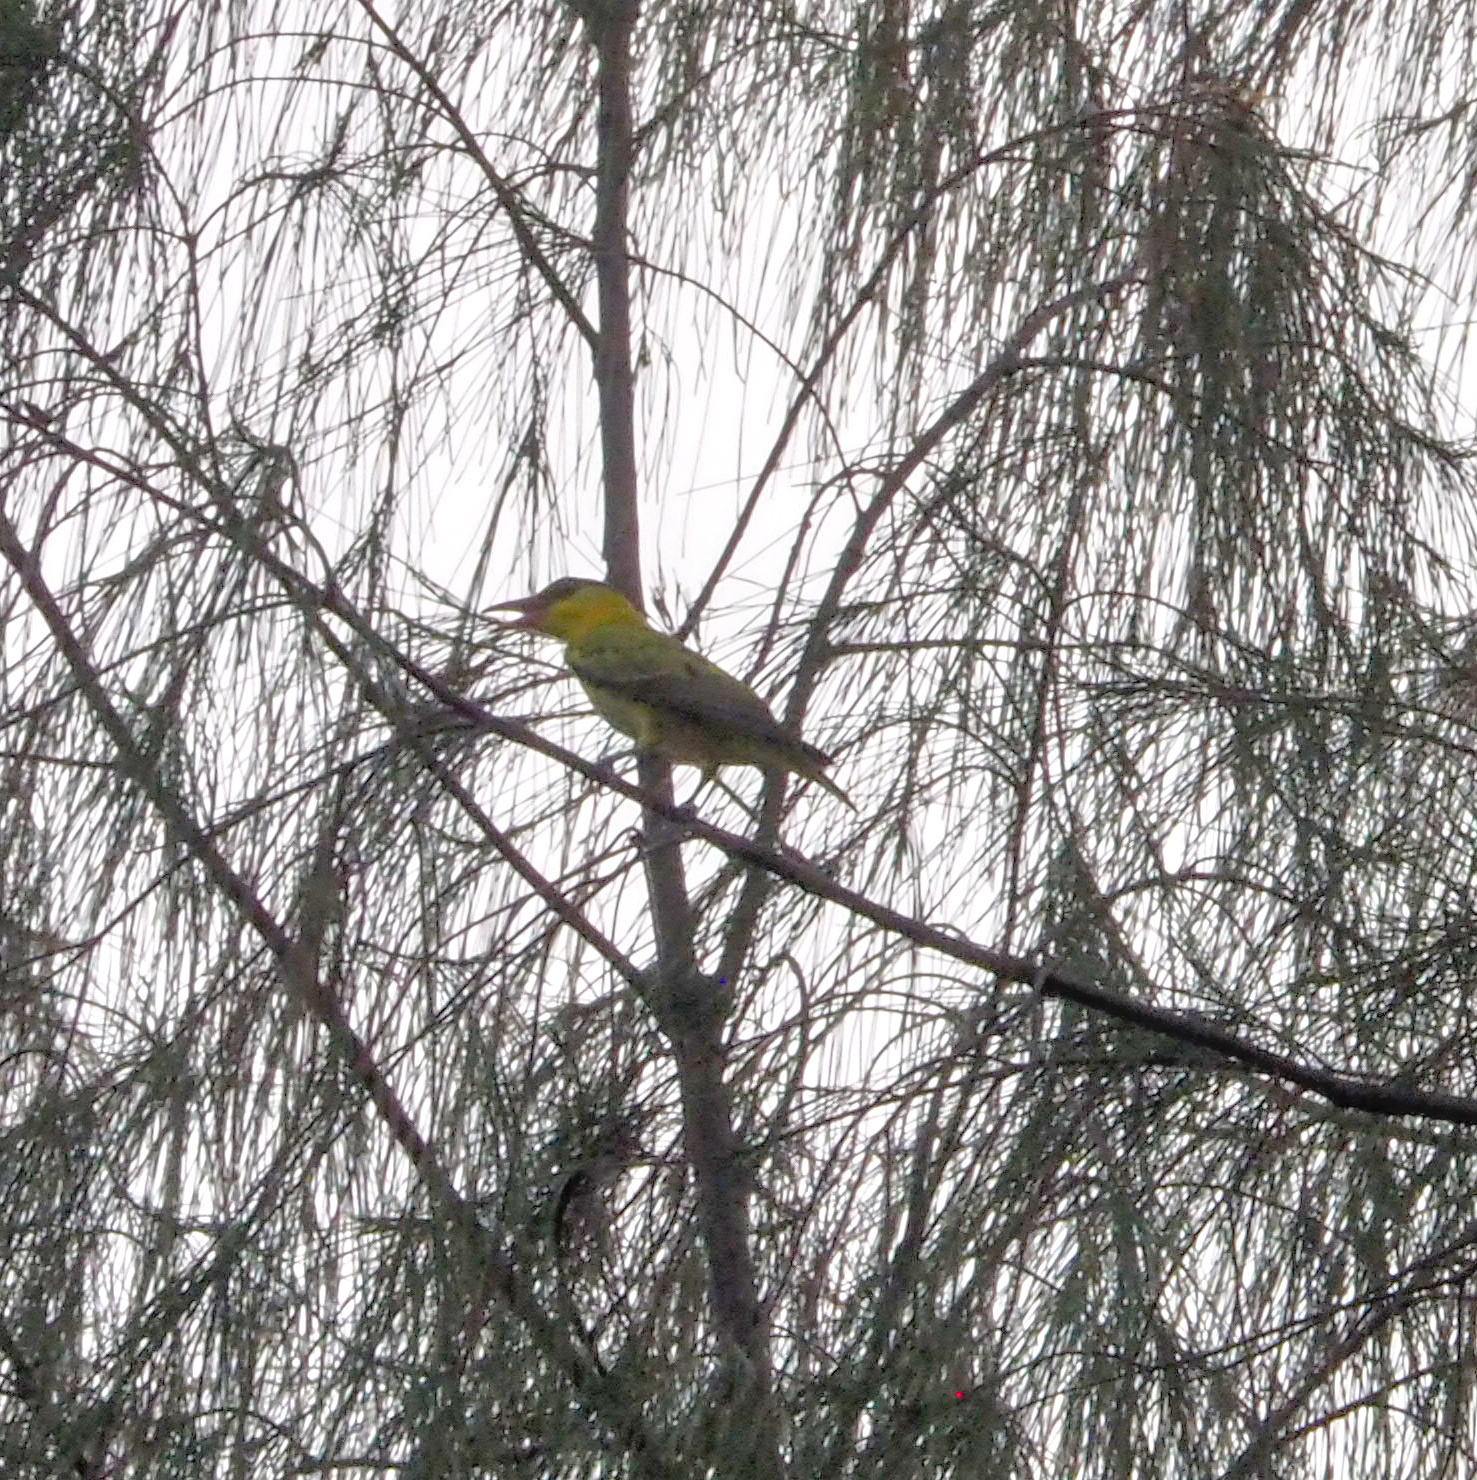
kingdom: Animalia
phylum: Chordata
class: Aves
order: Passeriformes
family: Oriolidae
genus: Oriolus
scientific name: Oriolus chinensis
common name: Black-naped oriole
